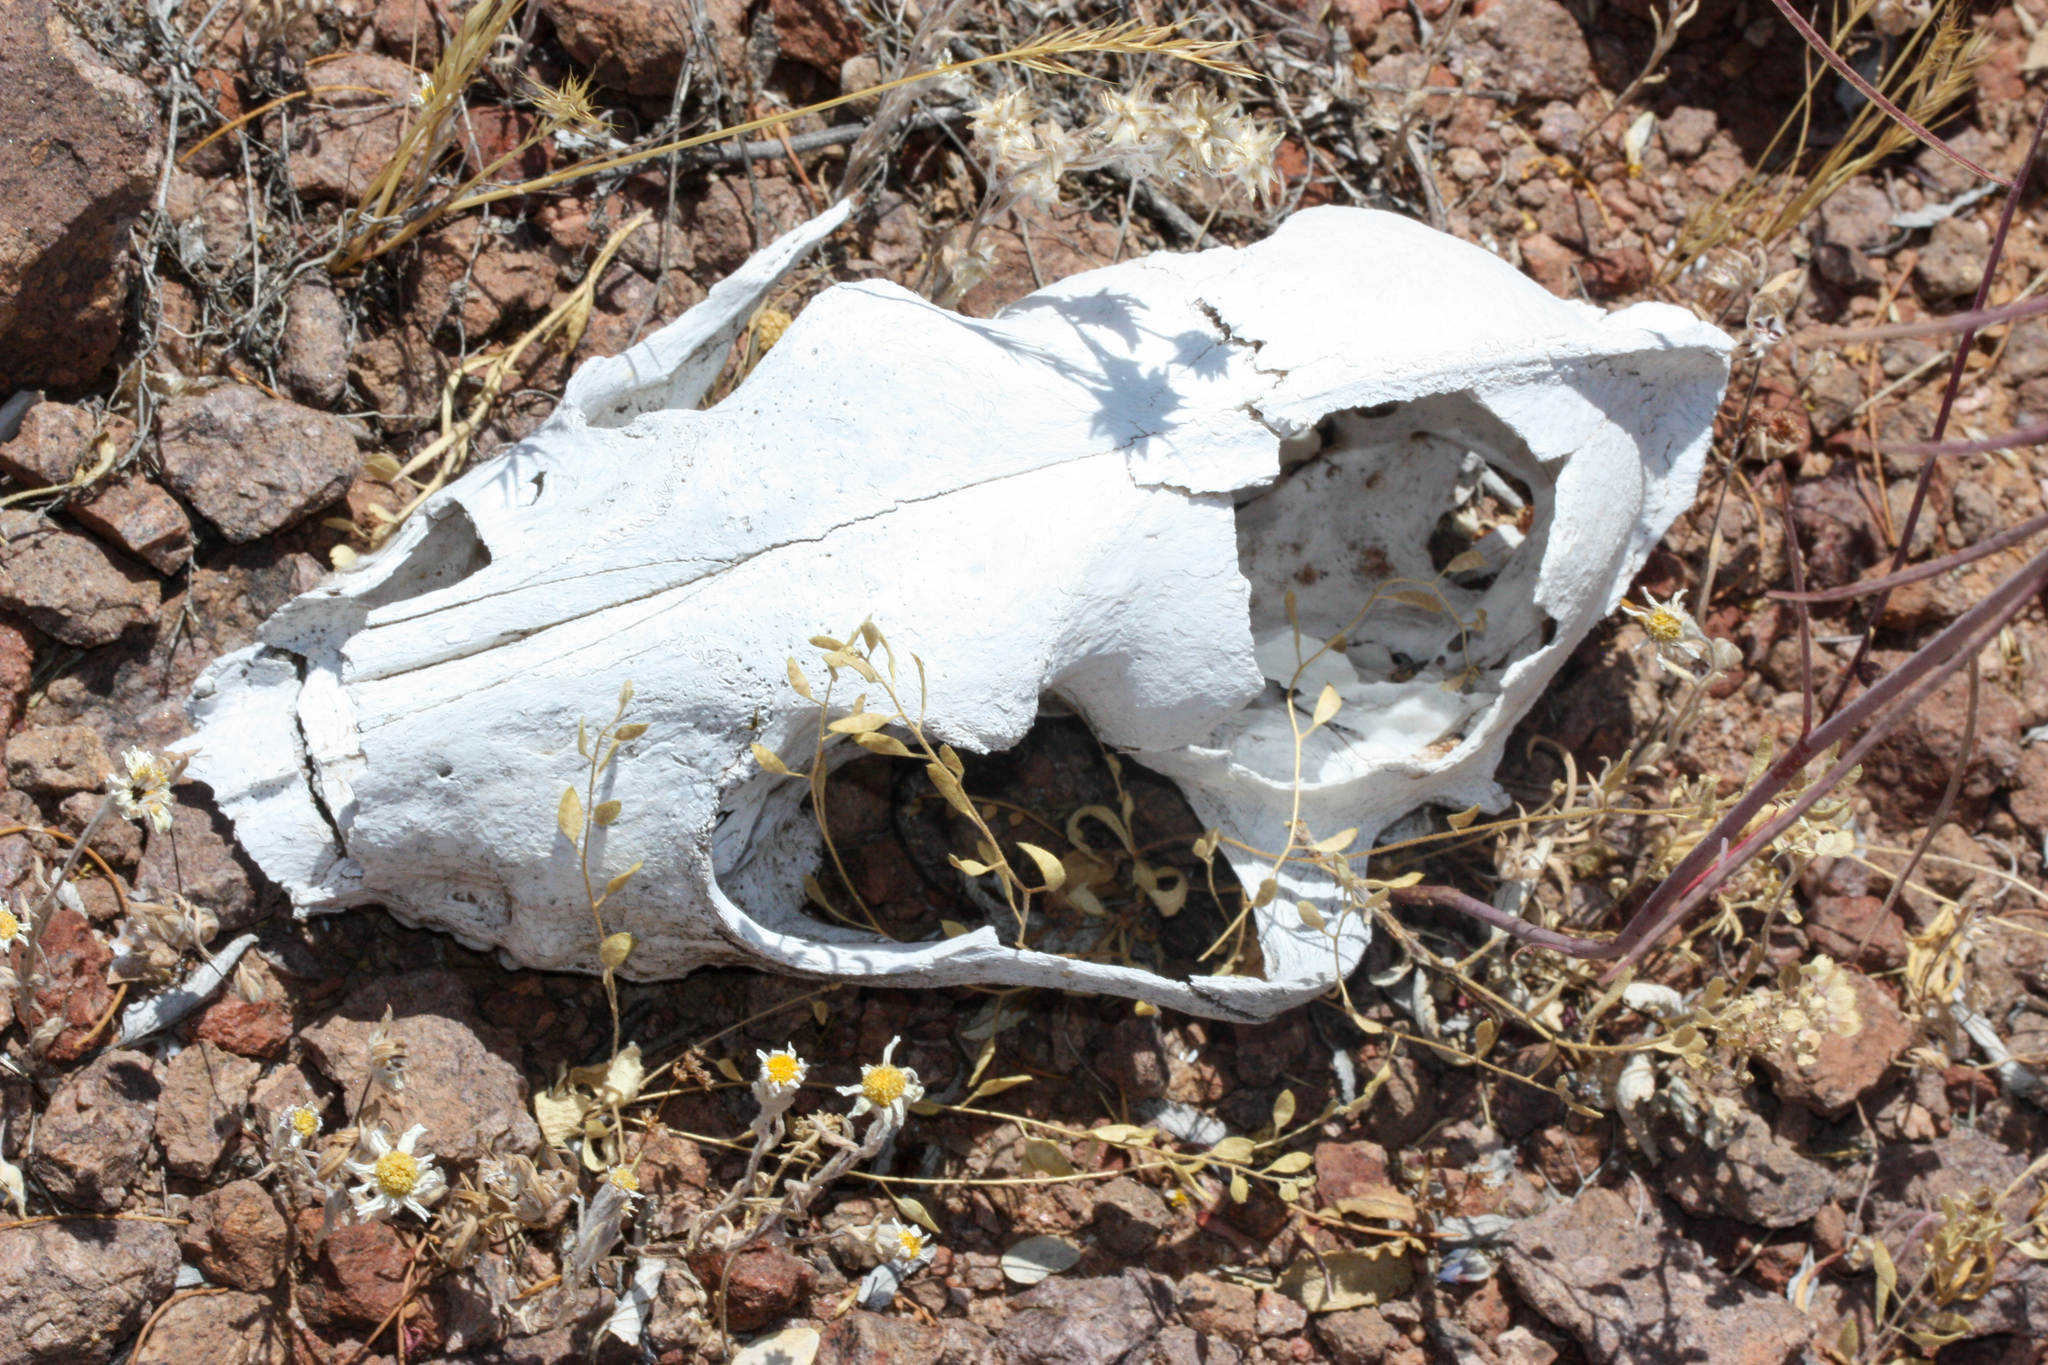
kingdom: Animalia
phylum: Chordata
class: Mammalia
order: Carnivora
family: Canidae
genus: Canis
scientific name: Canis latrans
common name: Coyote
